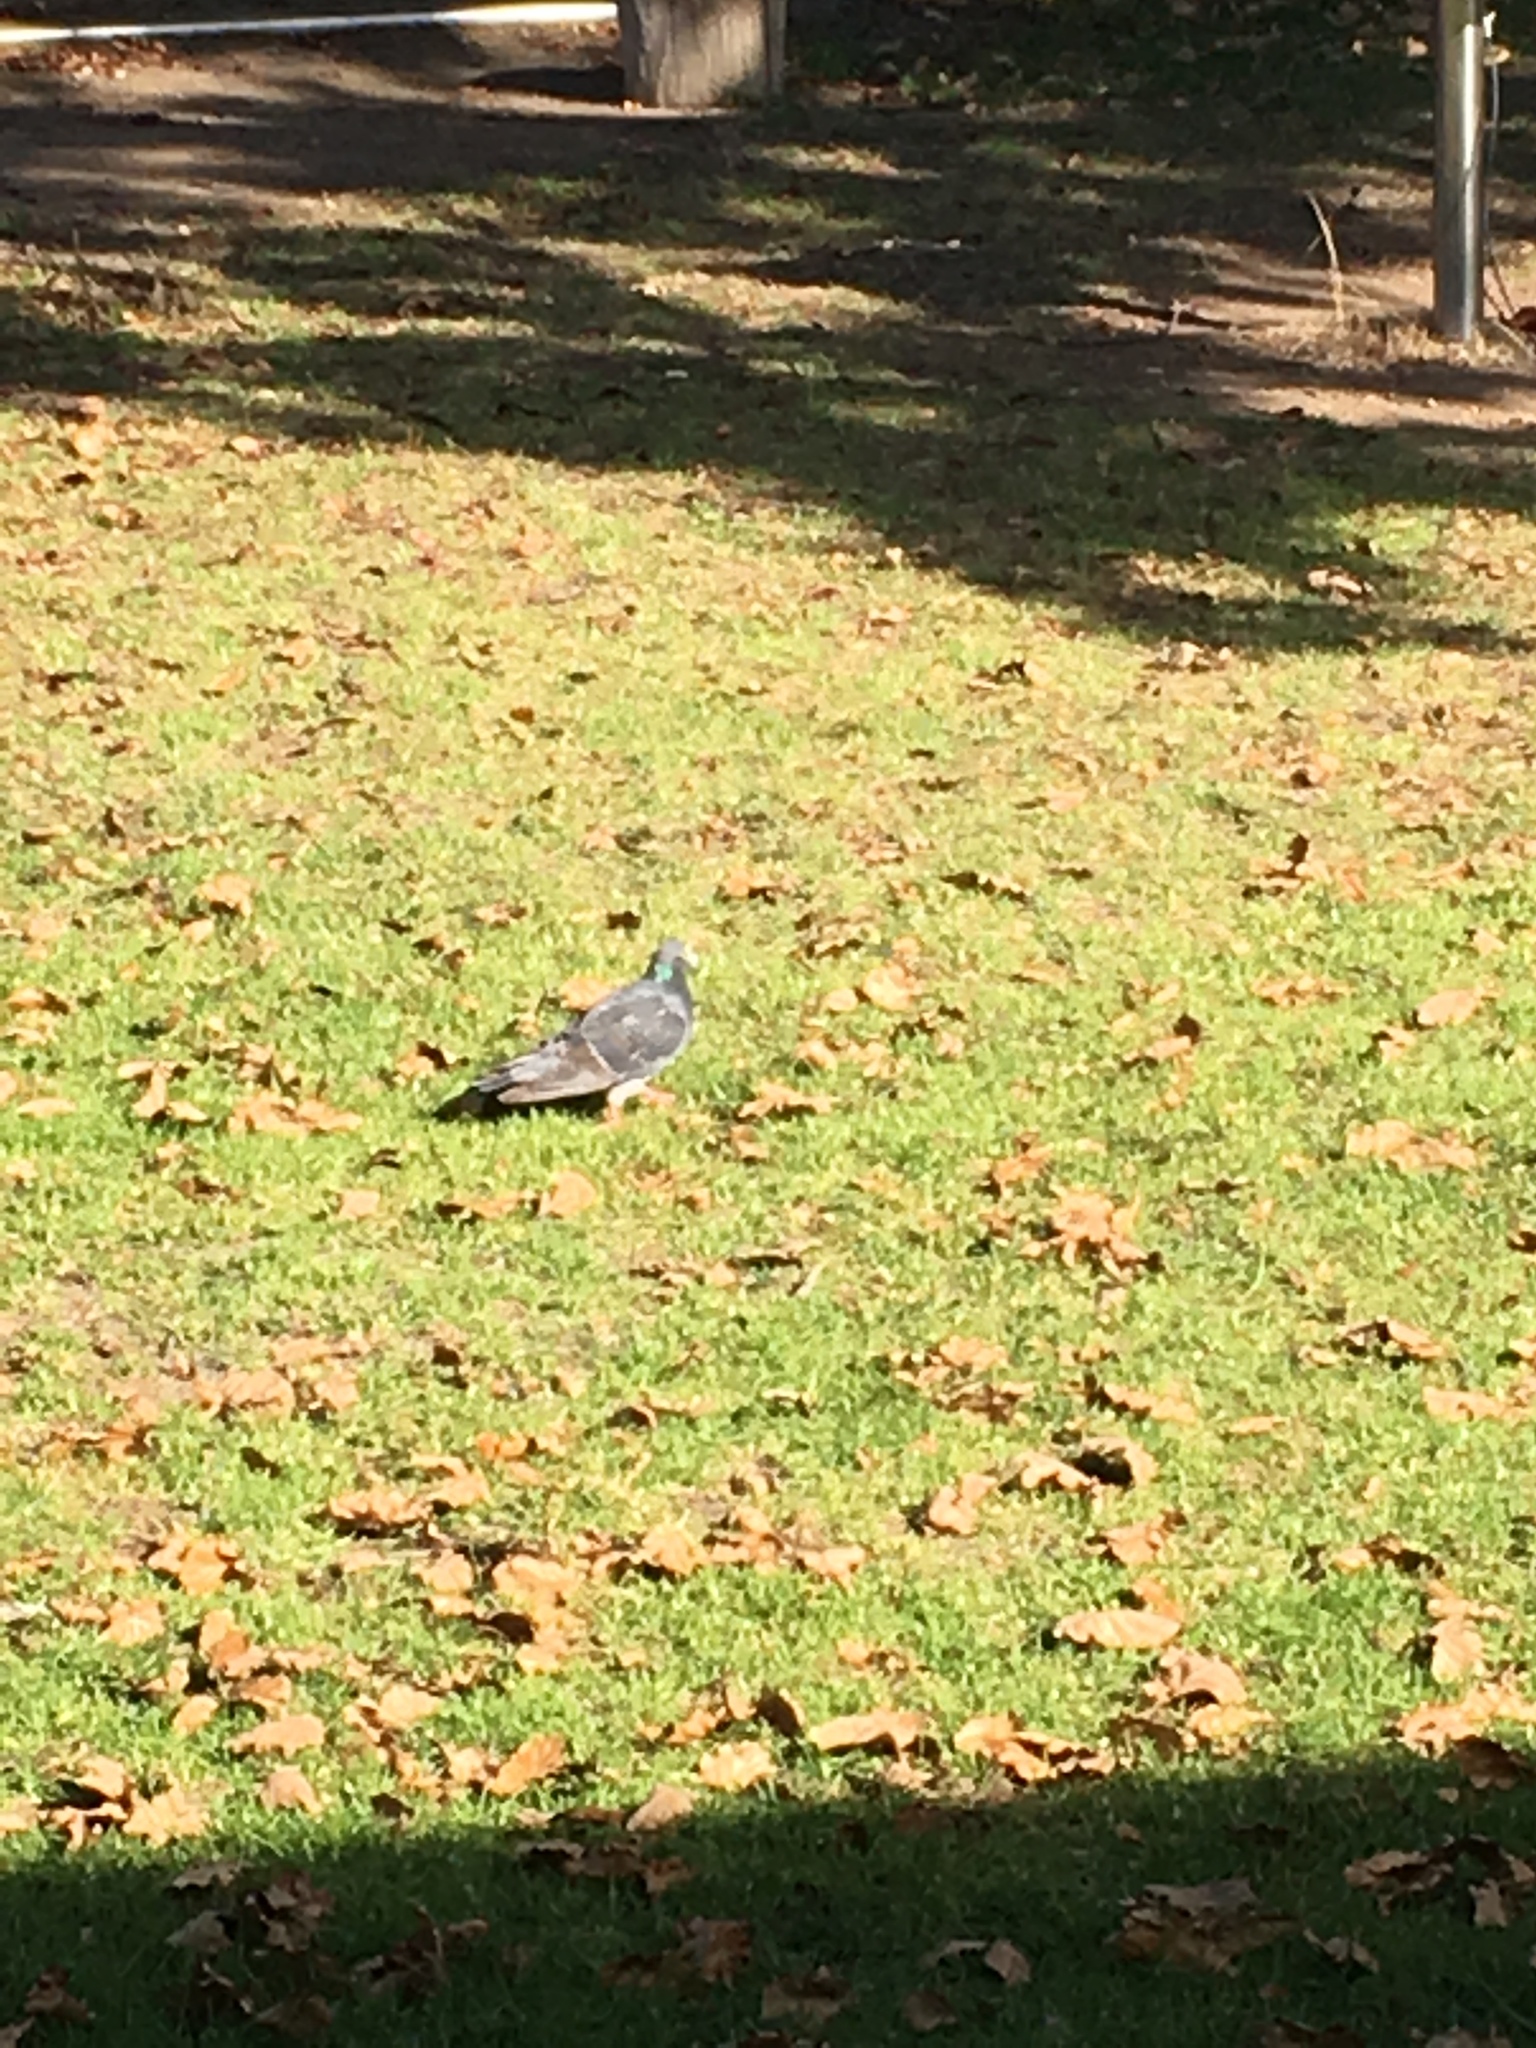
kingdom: Animalia
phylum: Chordata
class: Aves
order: Columbiformes
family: Columbidae
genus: Columba
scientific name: Columba livia
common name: Rock pigeon
